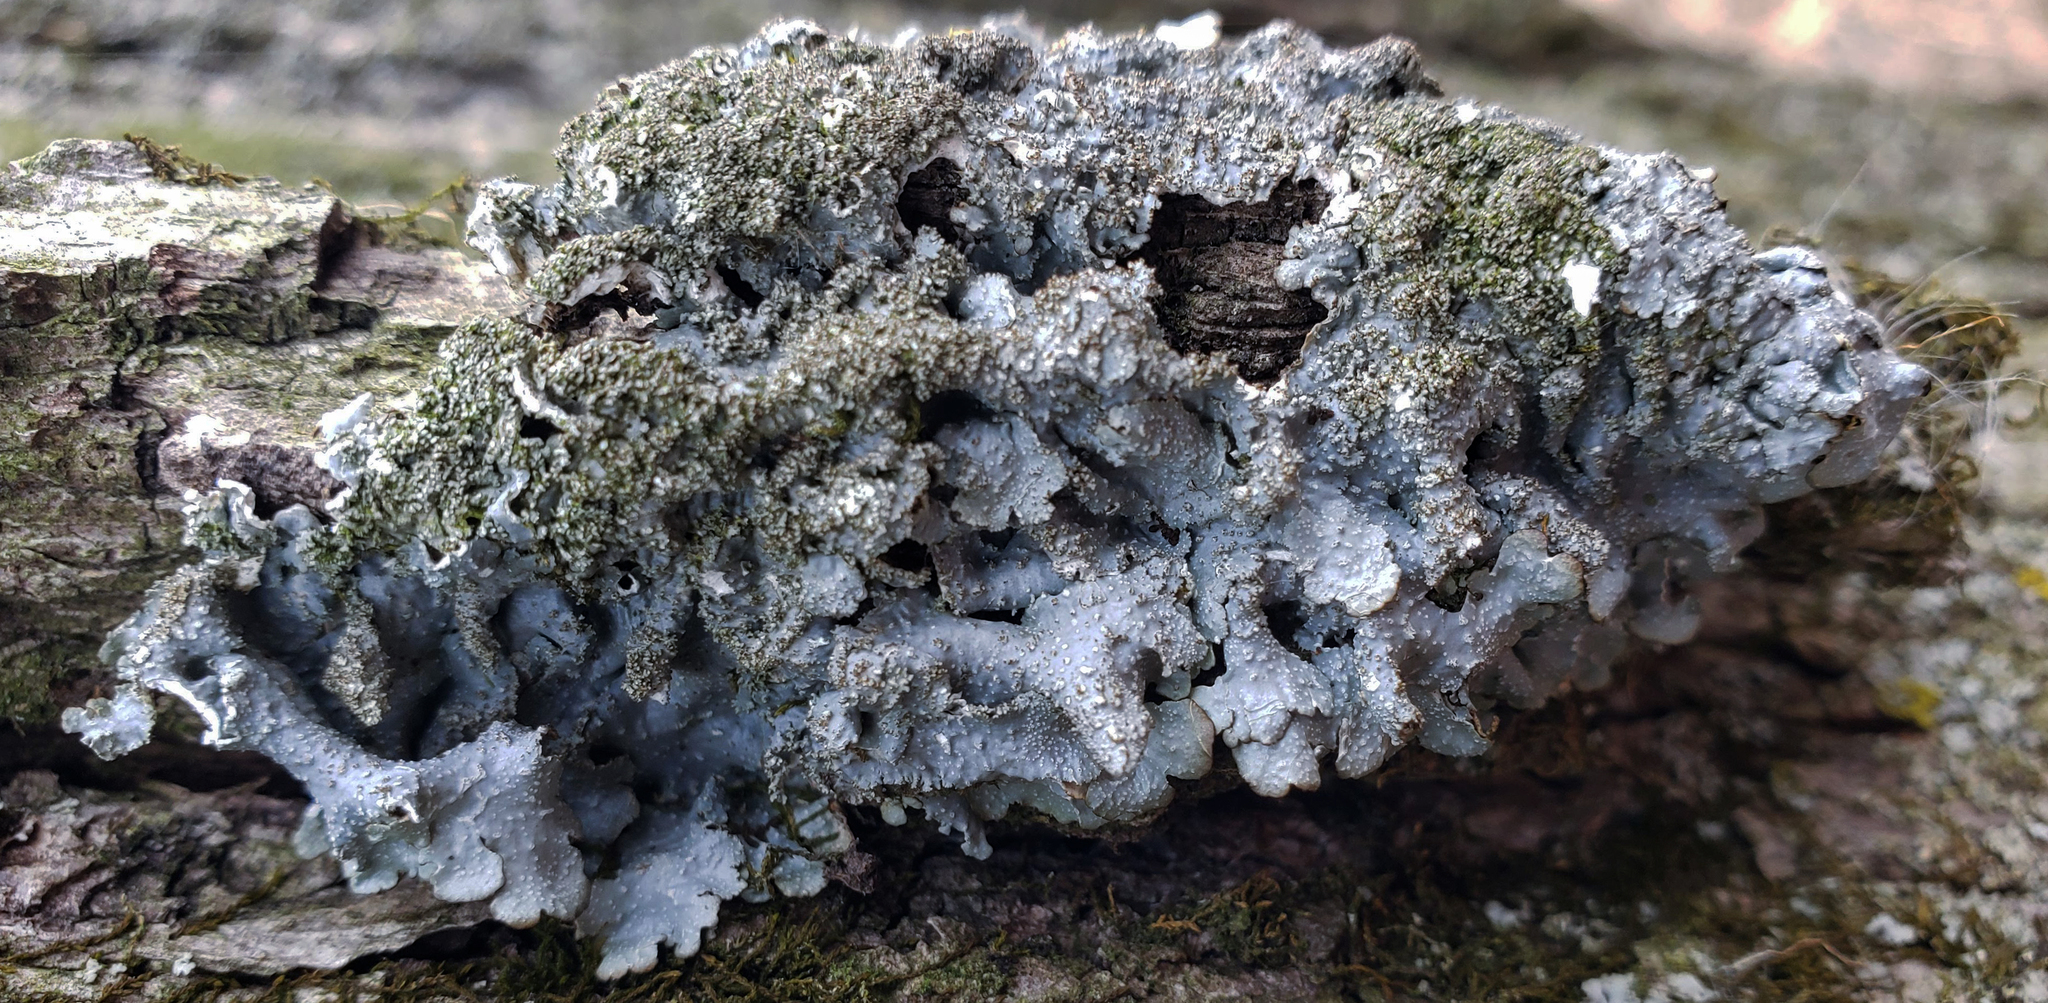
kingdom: Fungi
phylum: Ascomycota
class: Lecanoromycetes
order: Lecanorales
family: Parmeliaceae
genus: Punctelia
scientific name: Punctelia rudecta
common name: Rough speckled shield lichen
